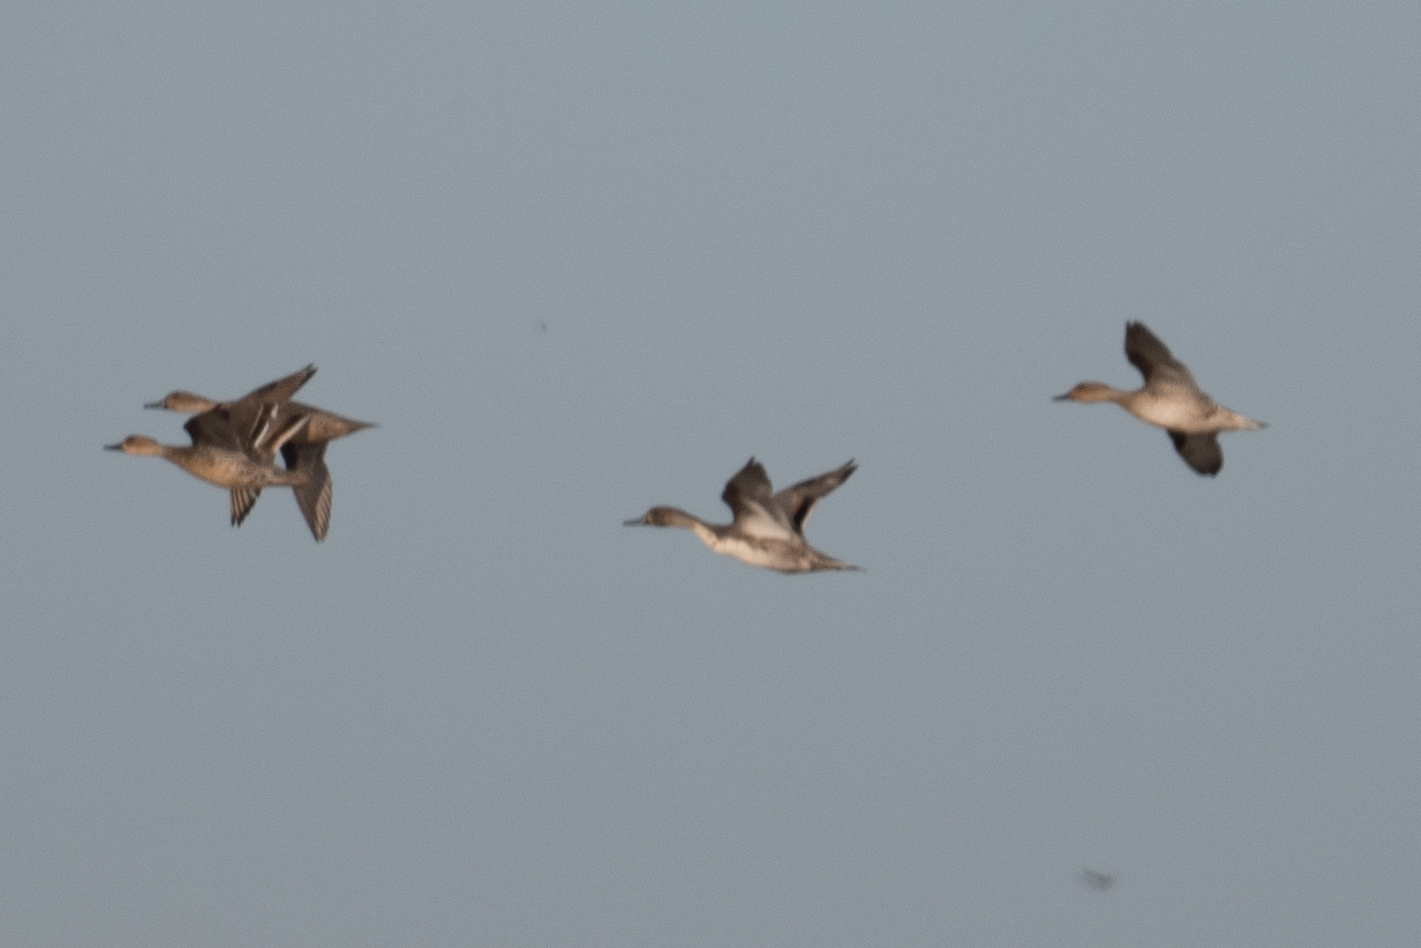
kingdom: Animalia
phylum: Chordata
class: Aves
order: Anseriformes
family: Anatidae
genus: Anas
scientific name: Anas acuta
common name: Northern pintail
